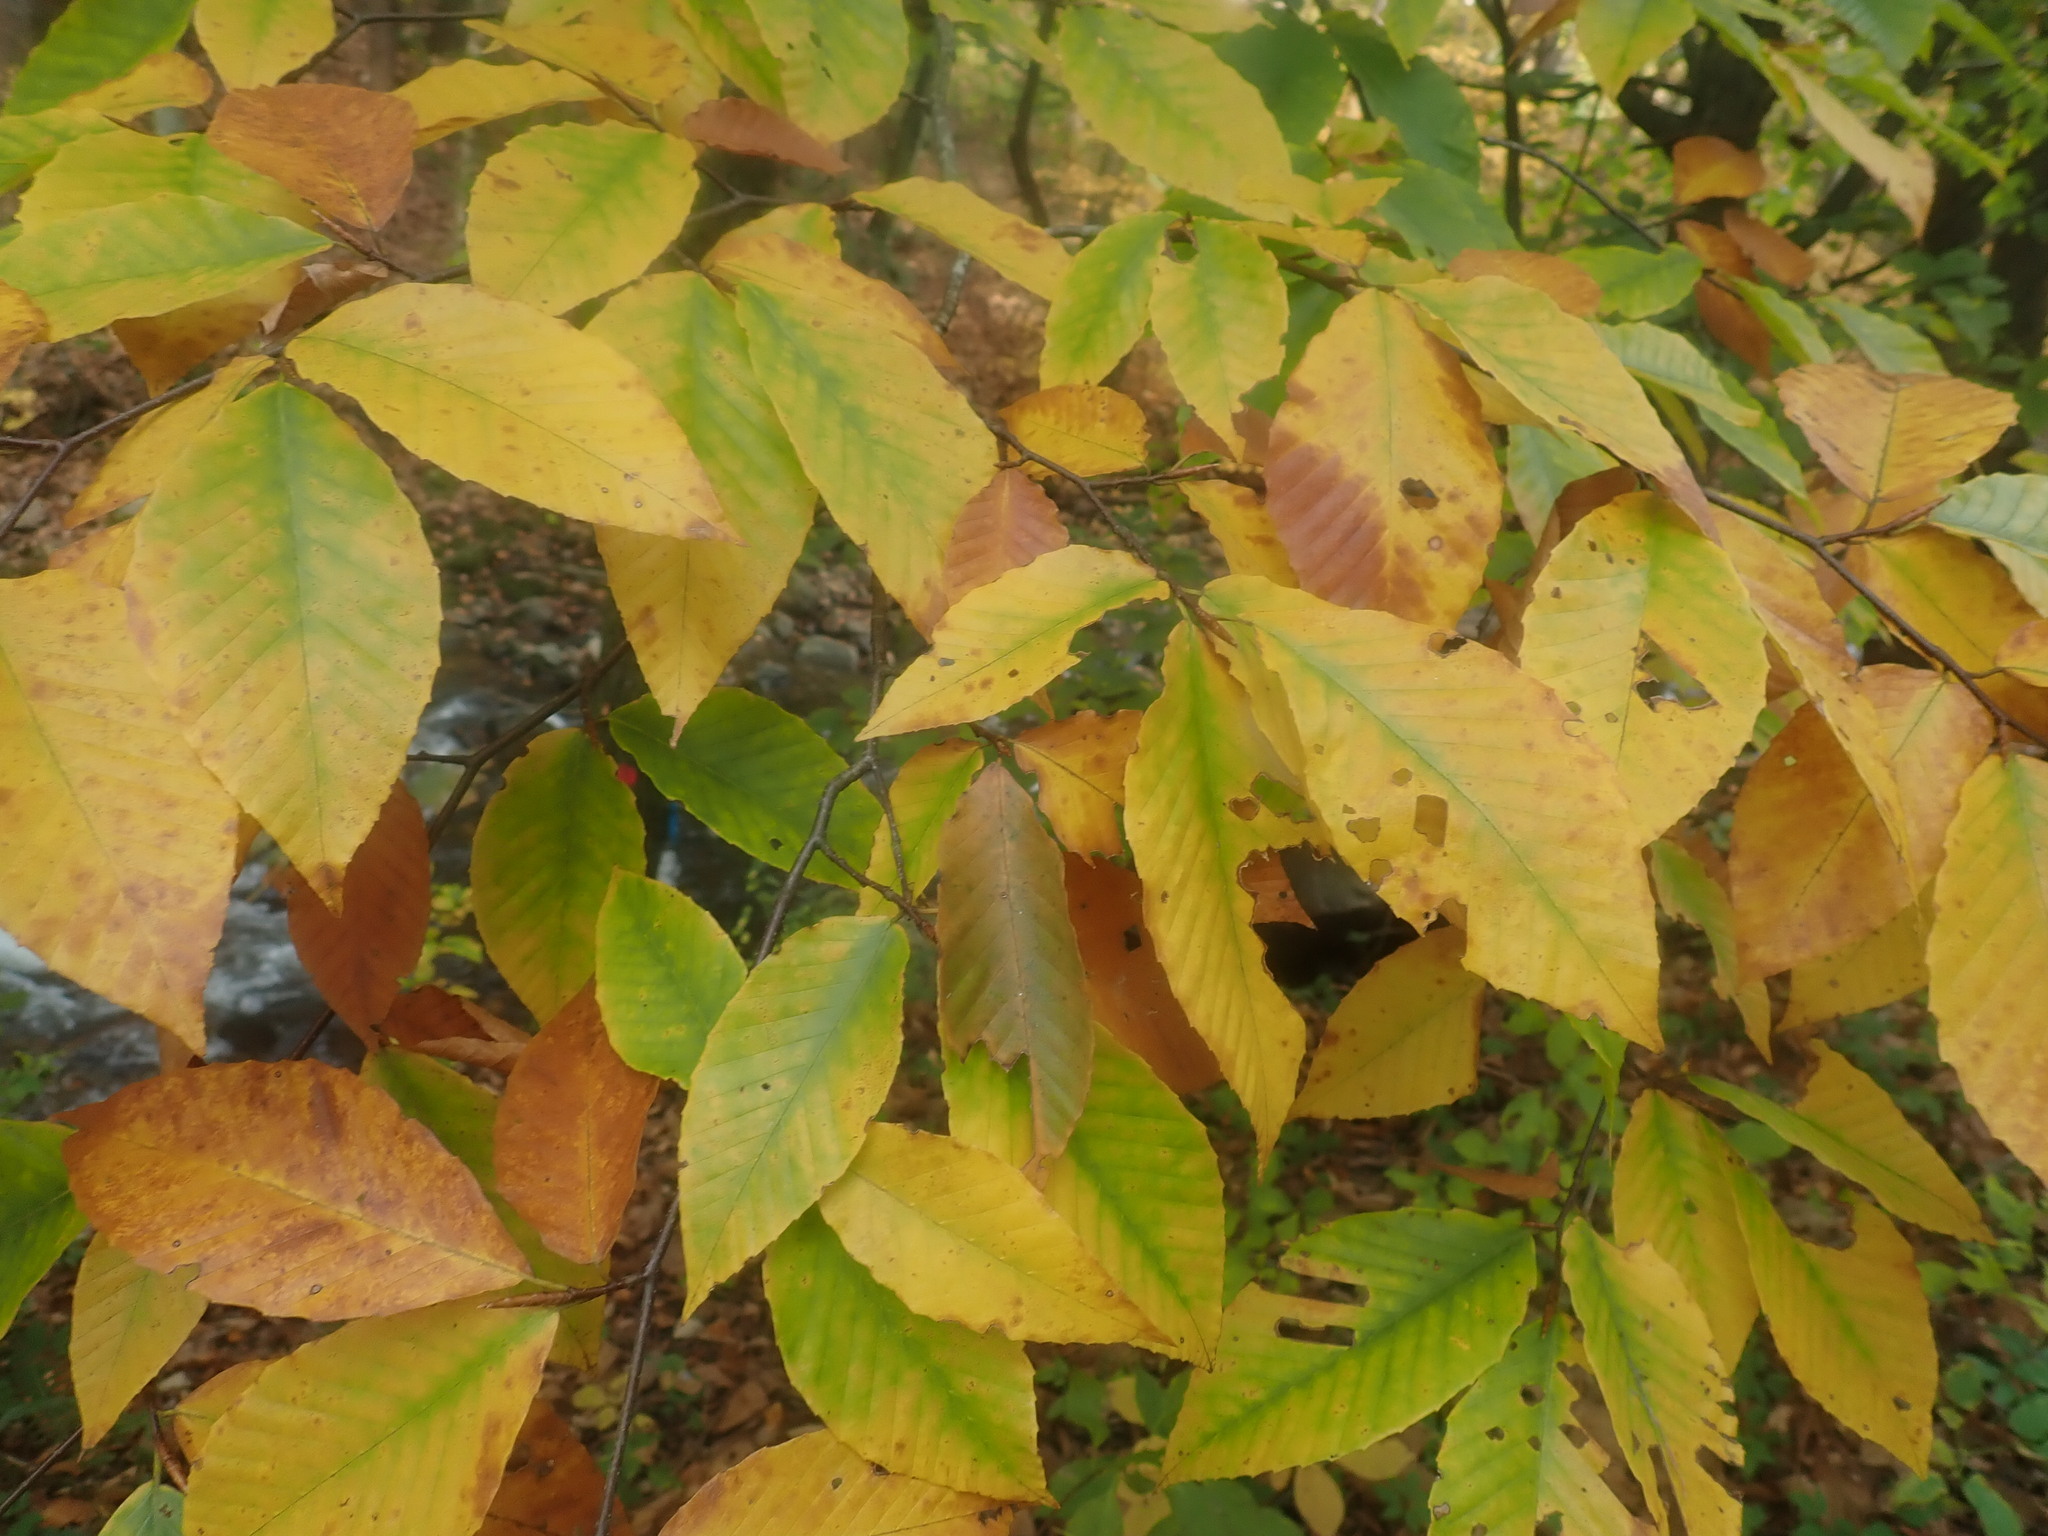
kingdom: Plantae
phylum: Tracheophyta
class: Magnoliopsida
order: Fagales
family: Fagaceae
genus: Fagus
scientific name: Fagus grandifolia
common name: American beech
